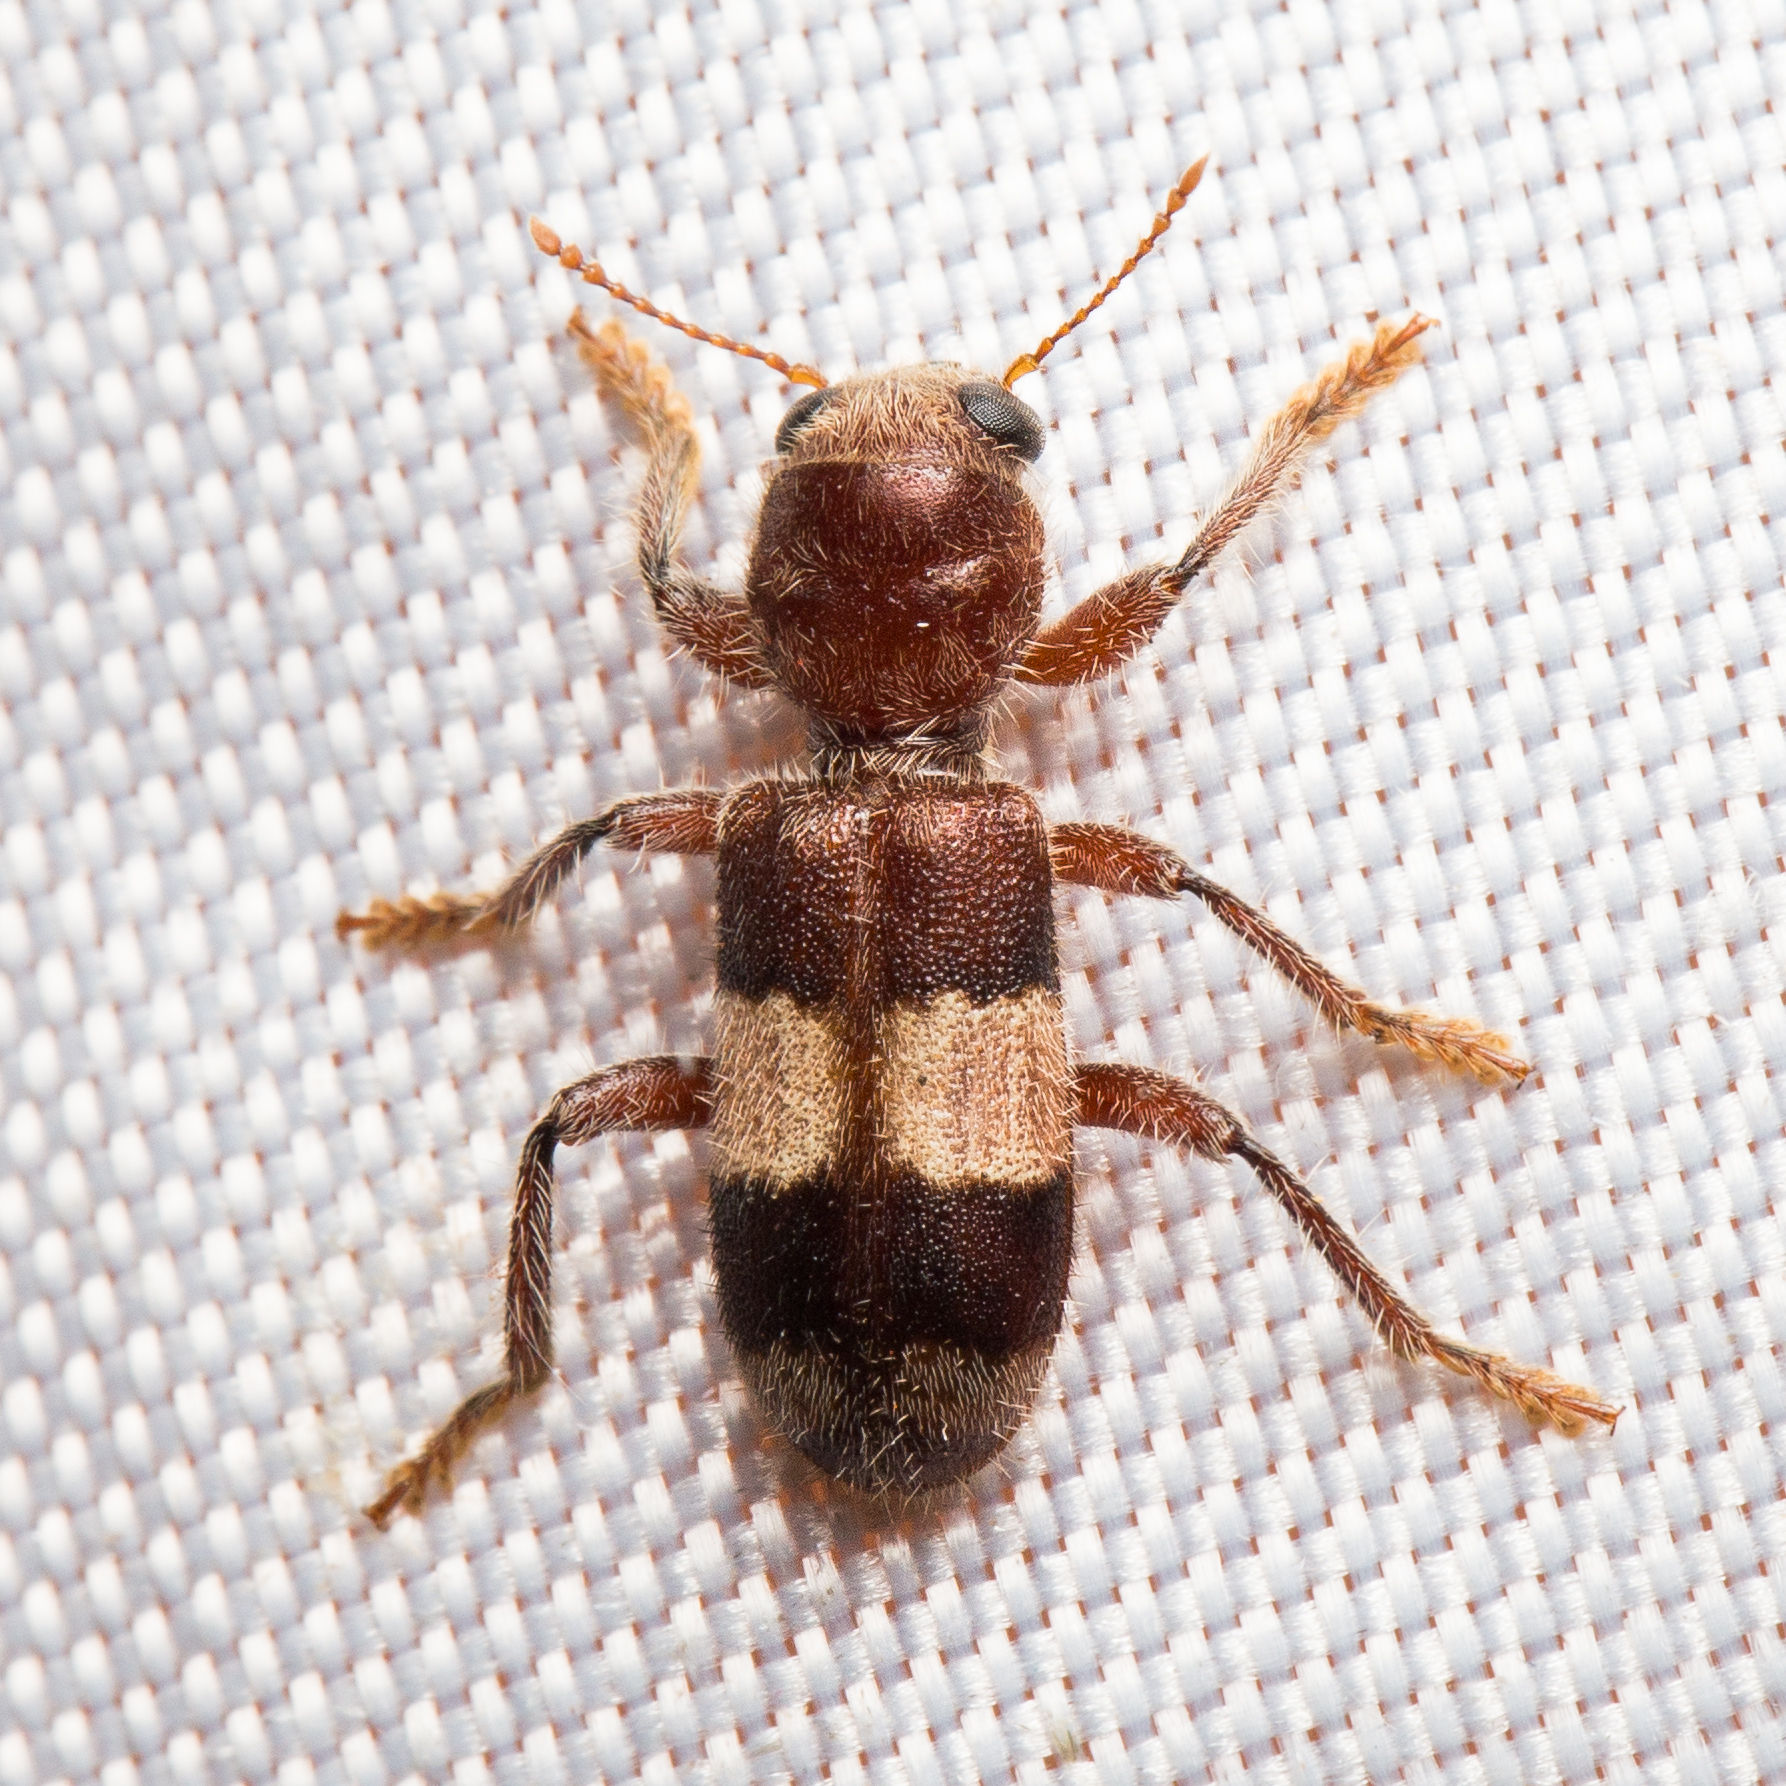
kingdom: Animalia
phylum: Arthropoda
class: Insecta
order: Coleoptera
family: Cleridae
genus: Enoclerus
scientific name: Enoclerus quadrisignatus
